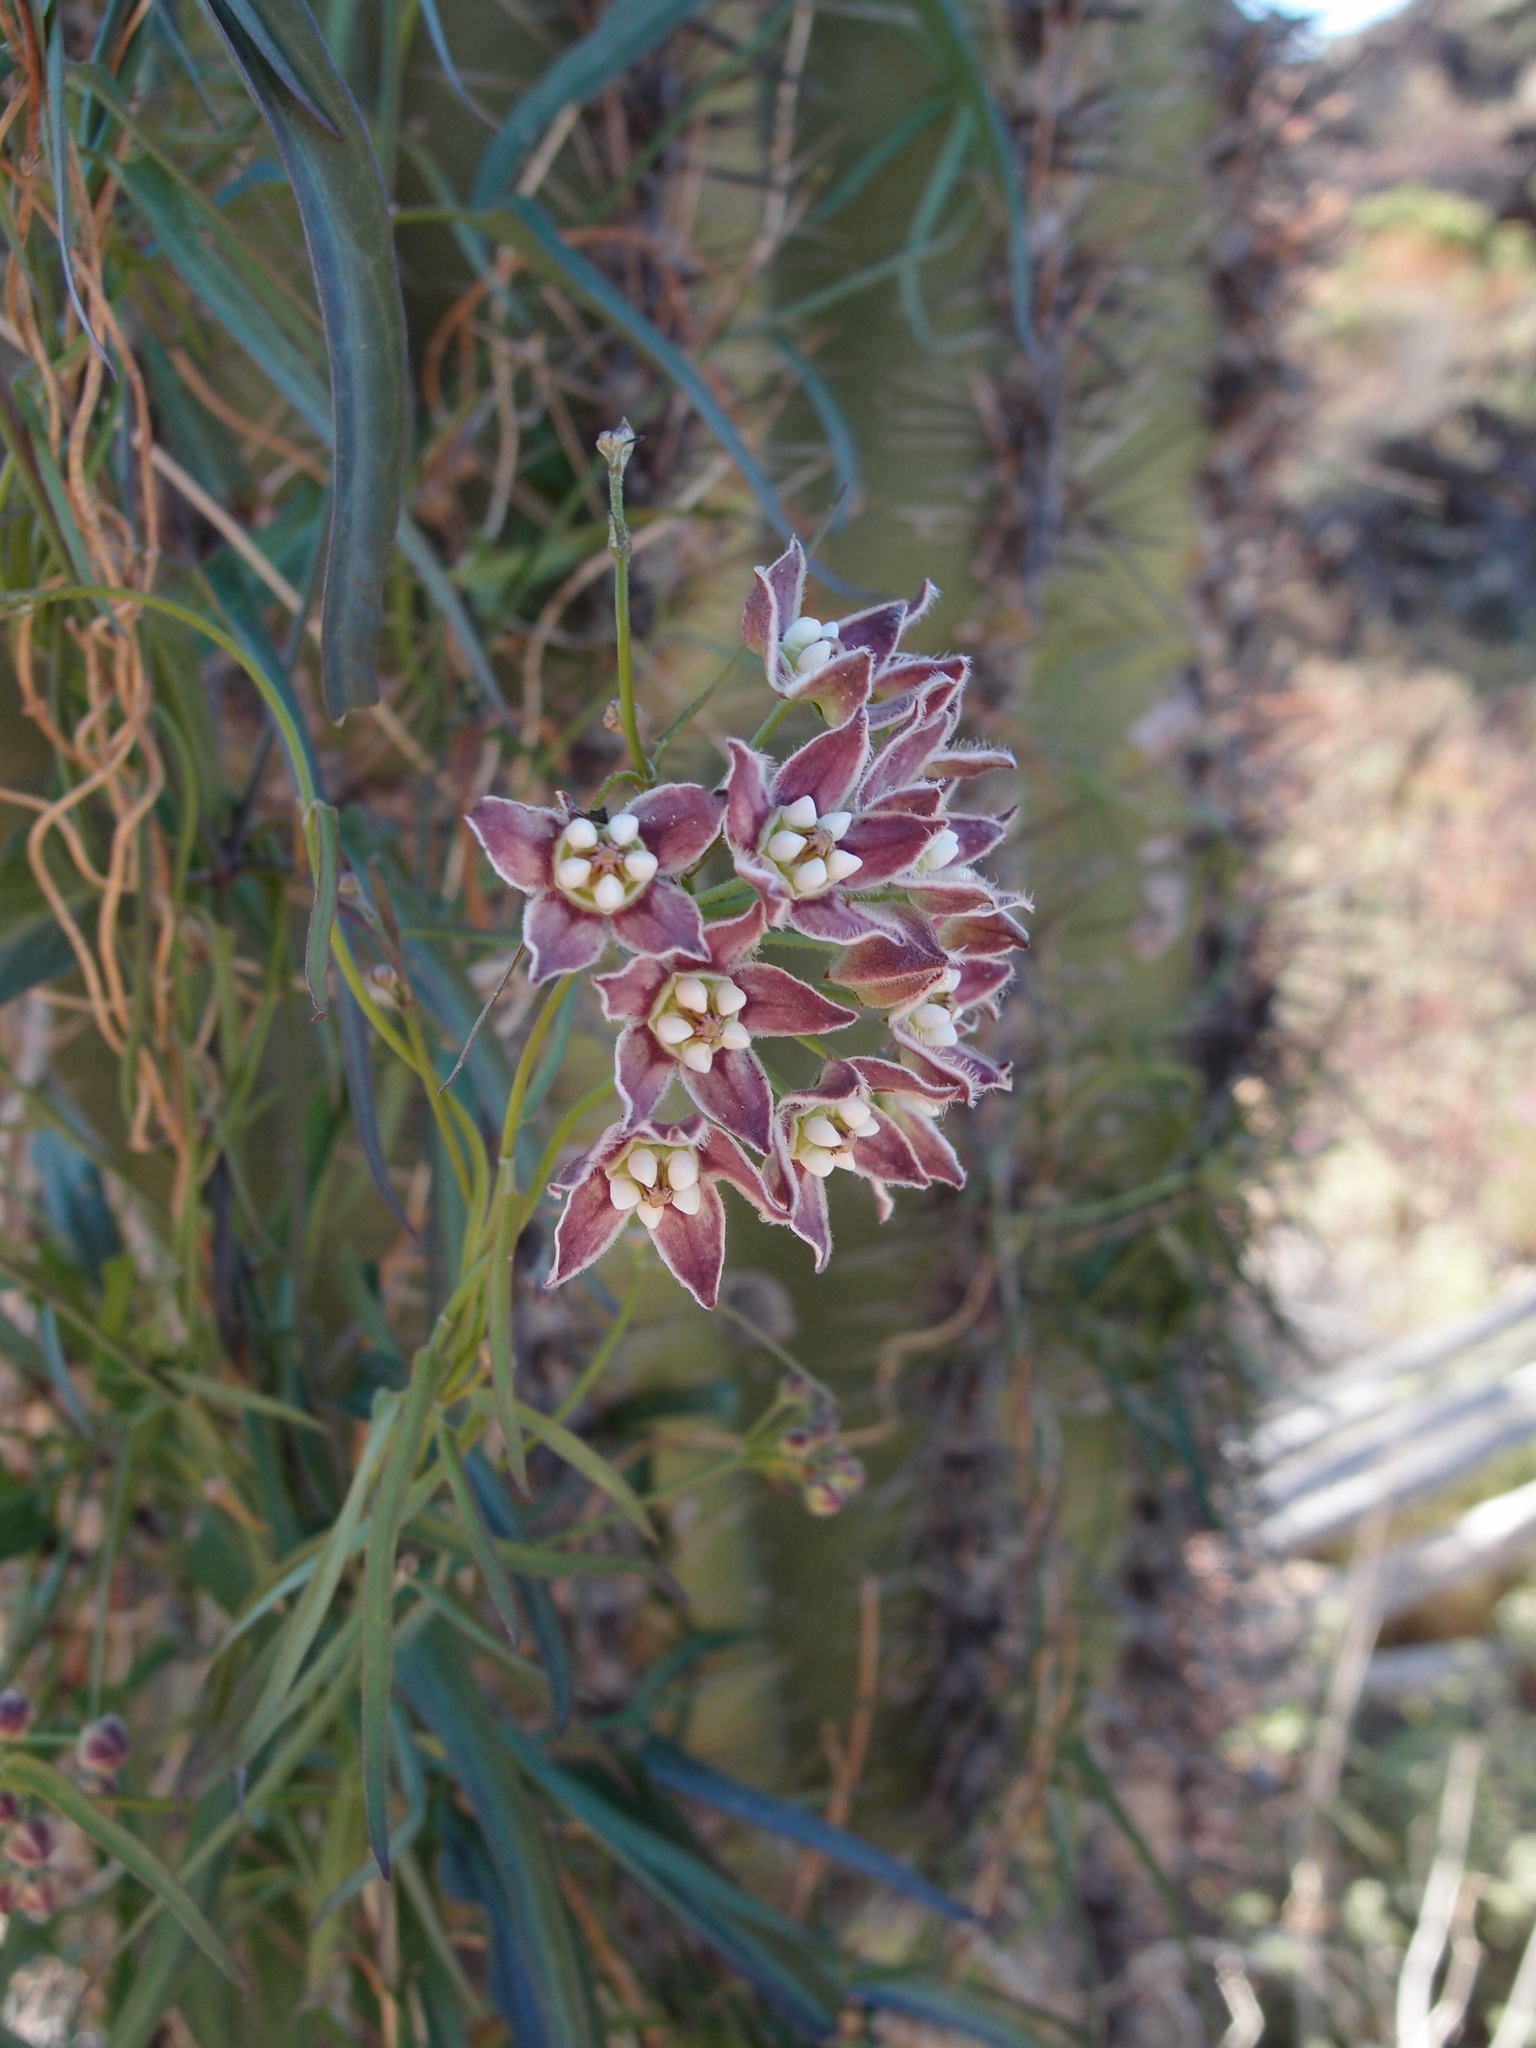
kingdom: Plantae
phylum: Tracheophyta
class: Magnoliopsida
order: Gentianales
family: Apocynaceae
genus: Funastrum
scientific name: Funastrum heterophyllum
